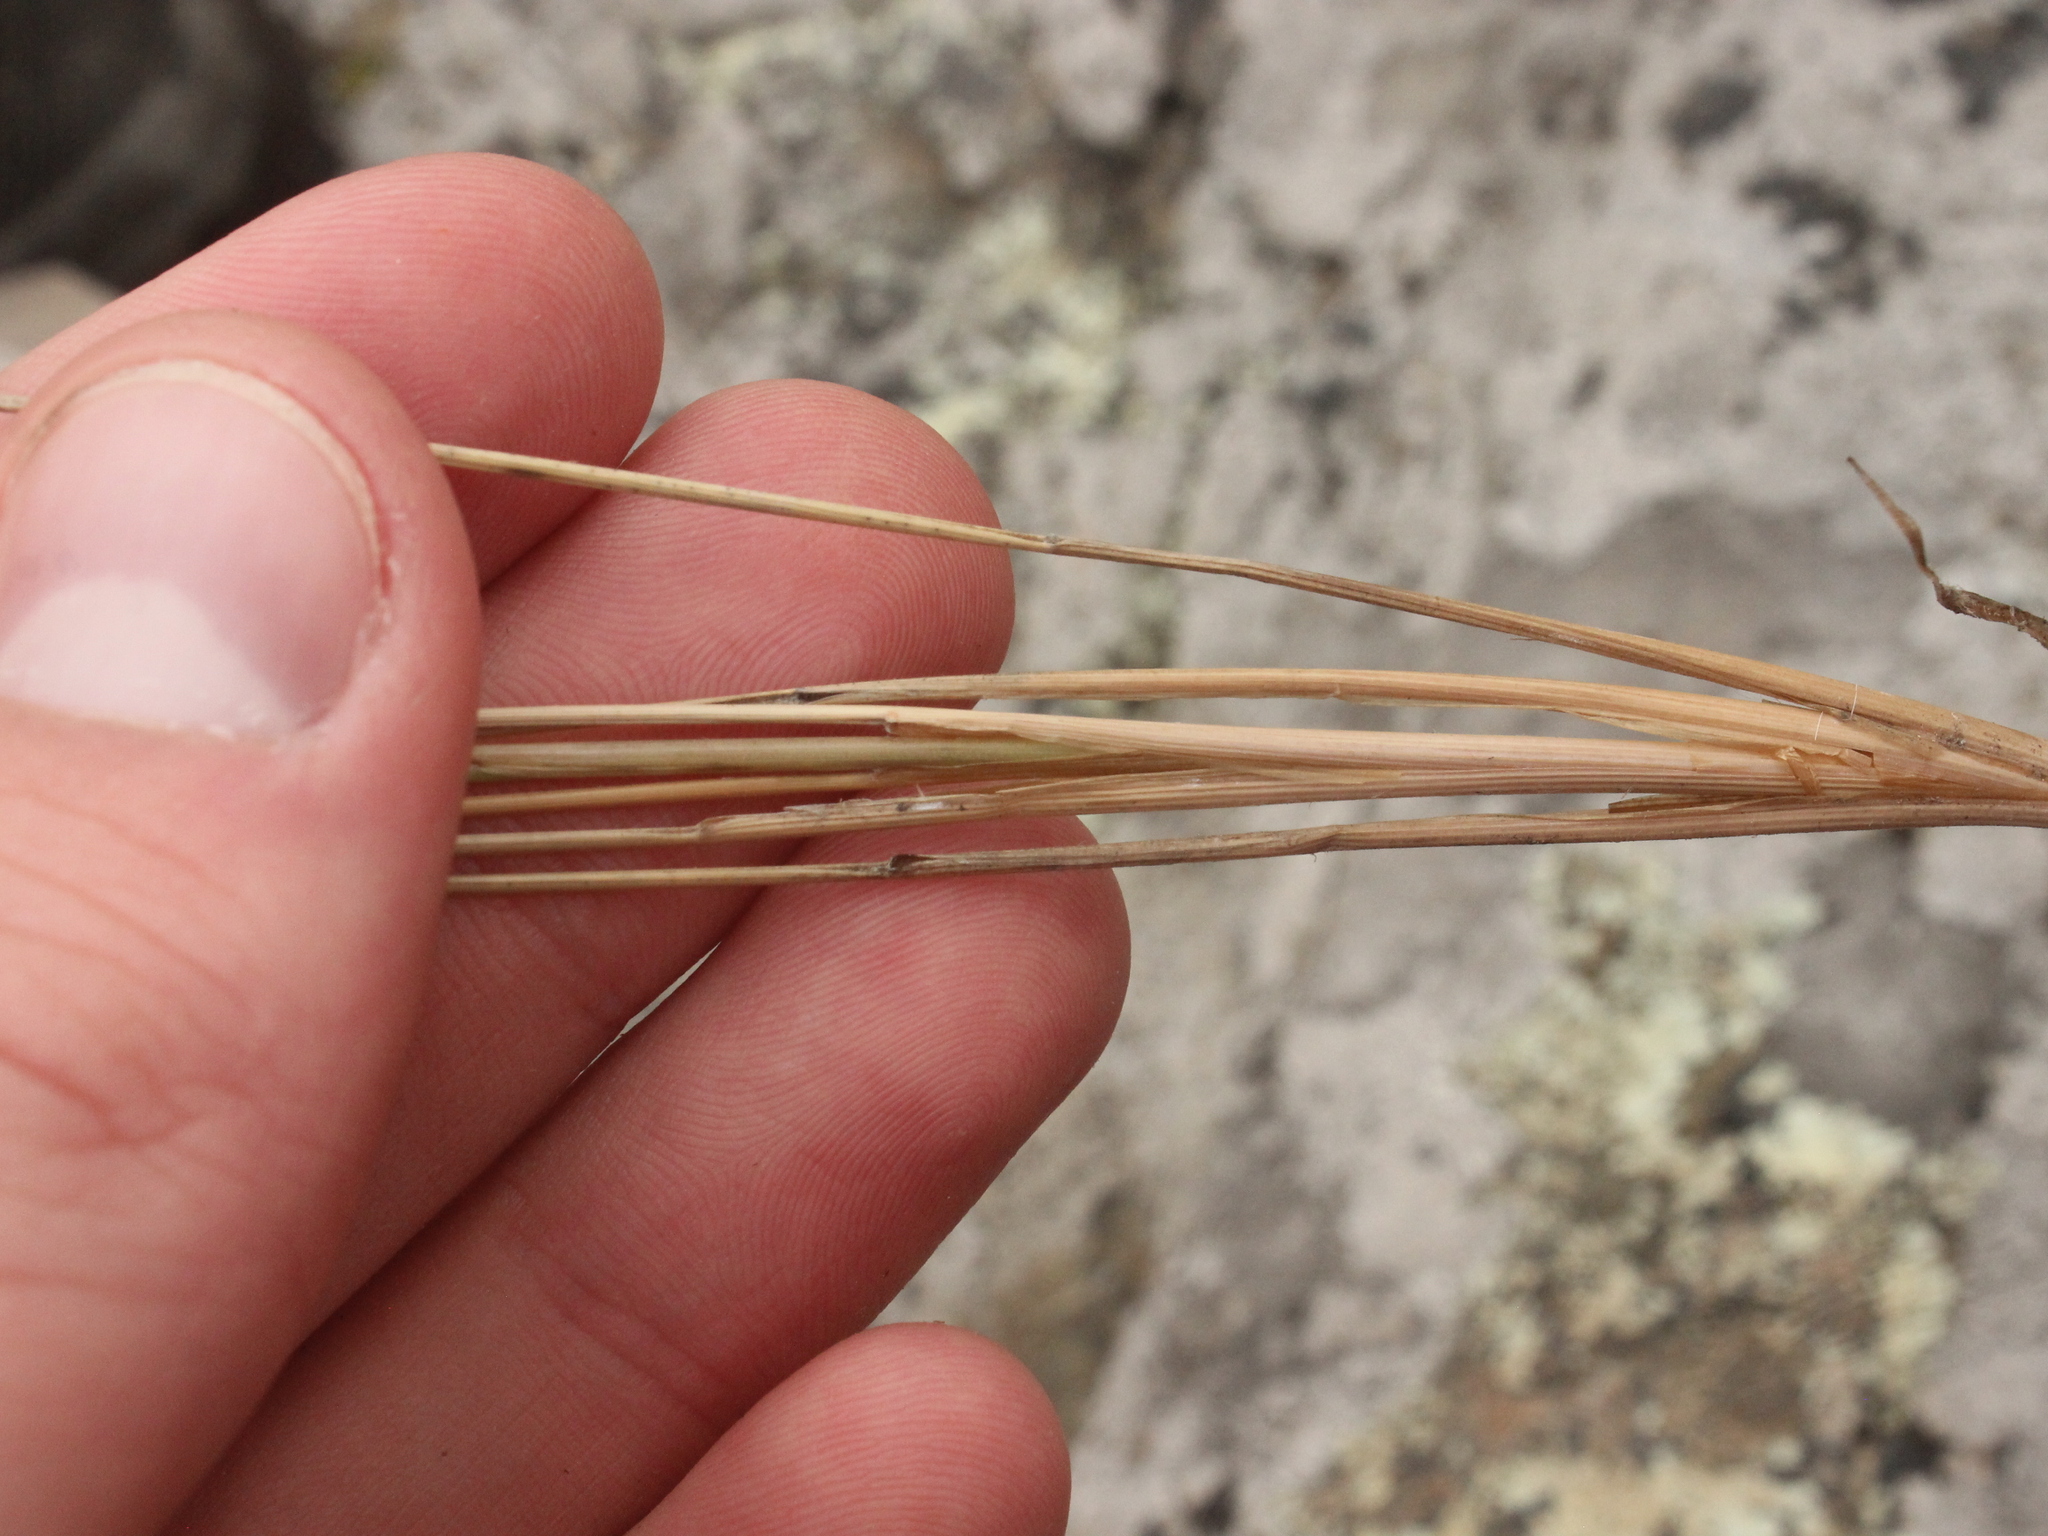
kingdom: Plantae
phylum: Tracheophyta
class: Liliopsida
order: Poales
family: Poaceae
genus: Poa
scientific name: Poa cita
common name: Silver tussock
